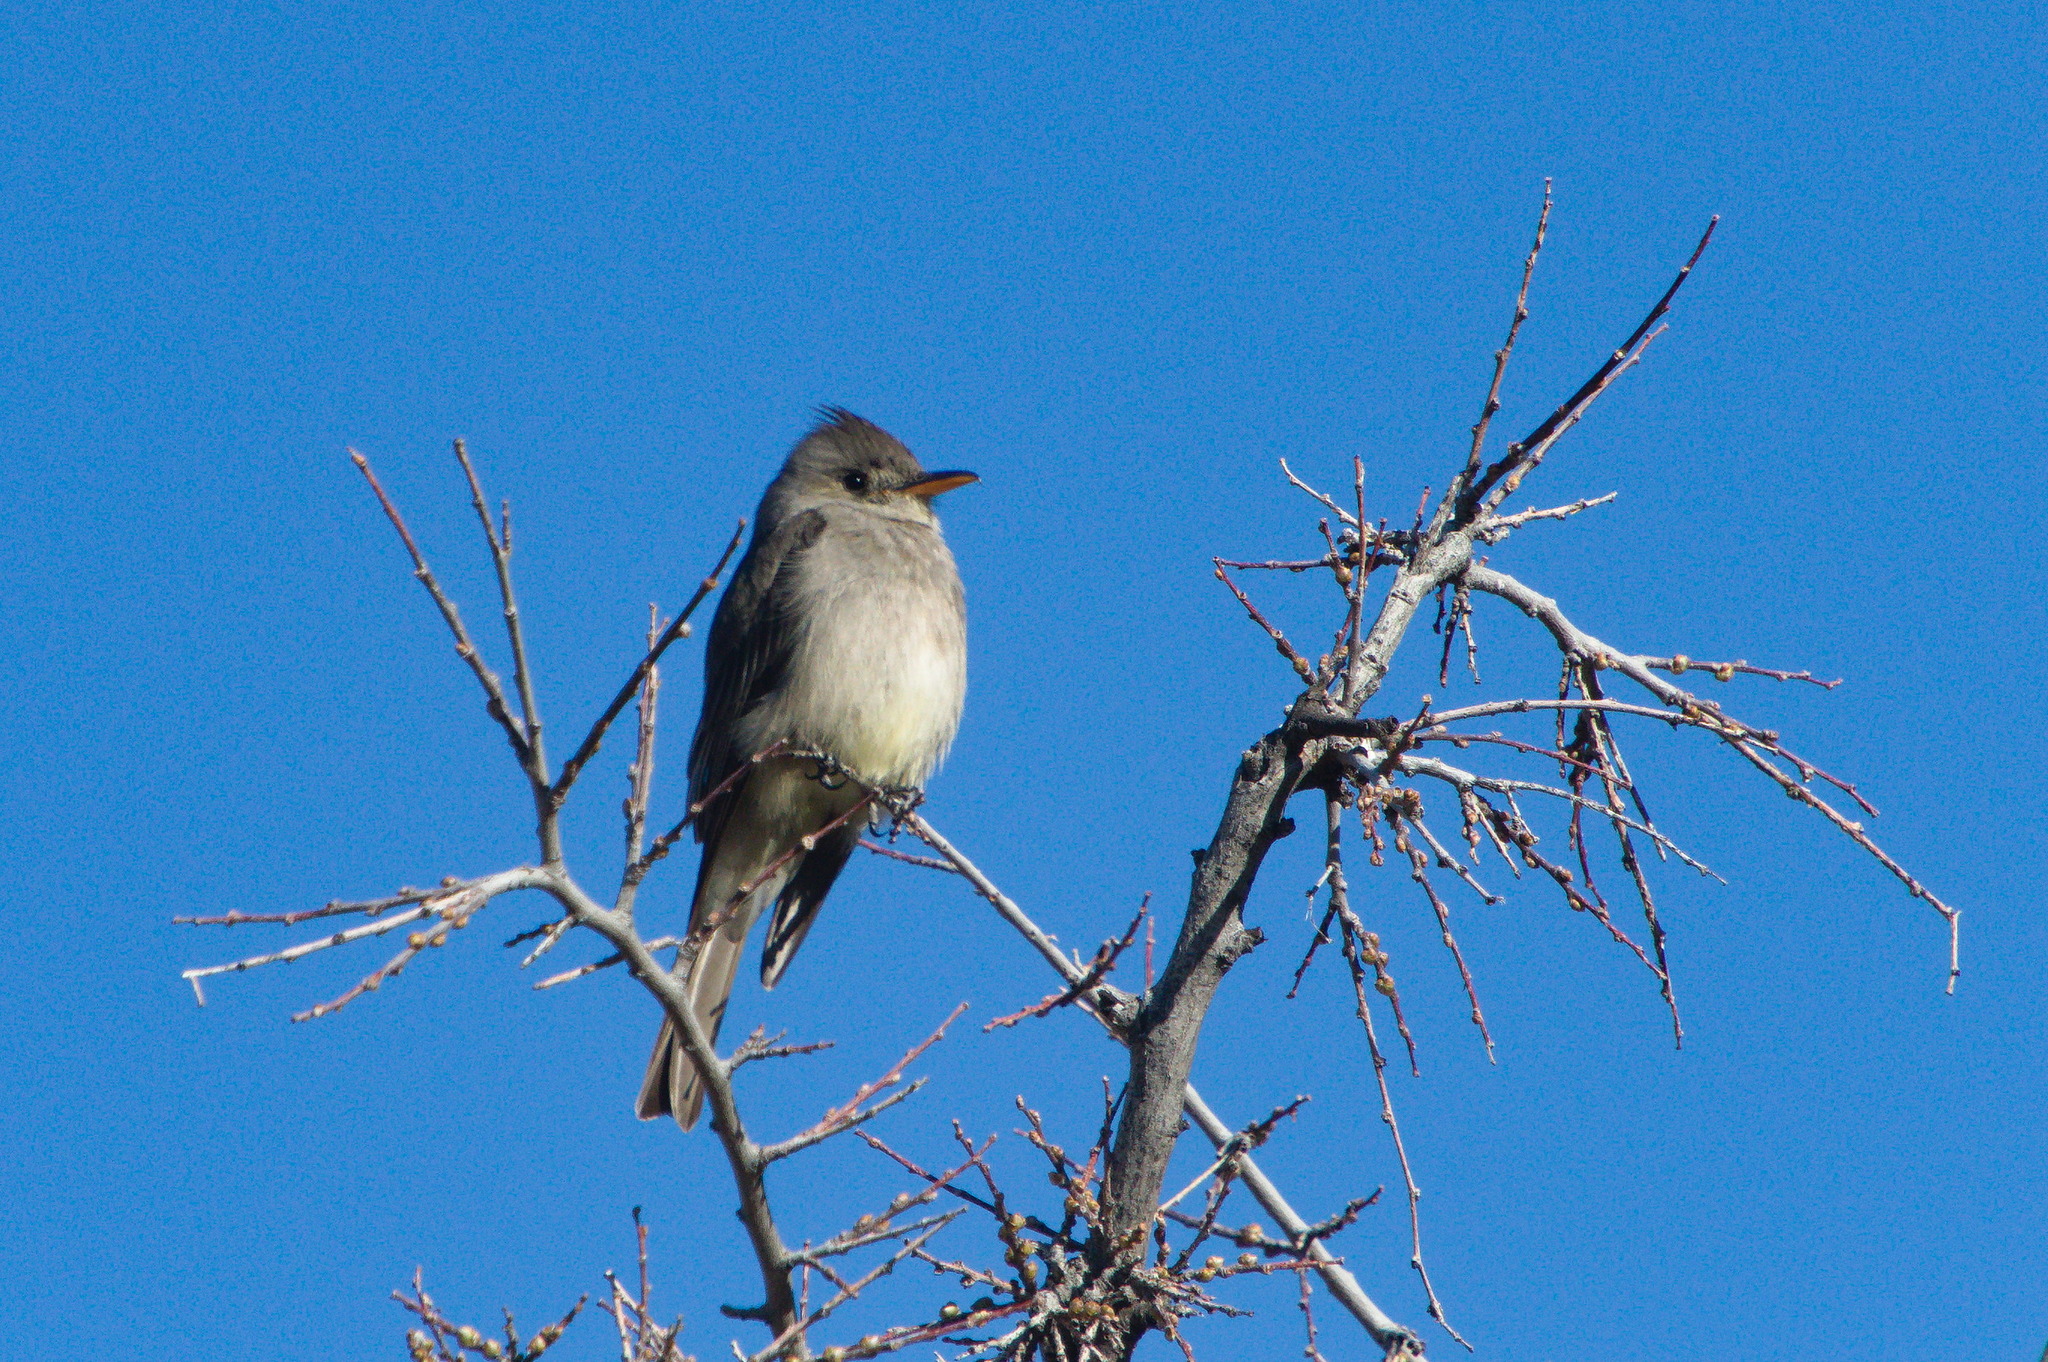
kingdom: Animalia
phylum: Chordata
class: Aves
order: Passeriformes
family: Tyrannidae
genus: Contopus
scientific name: Contopus pertinax
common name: Greater pewee
